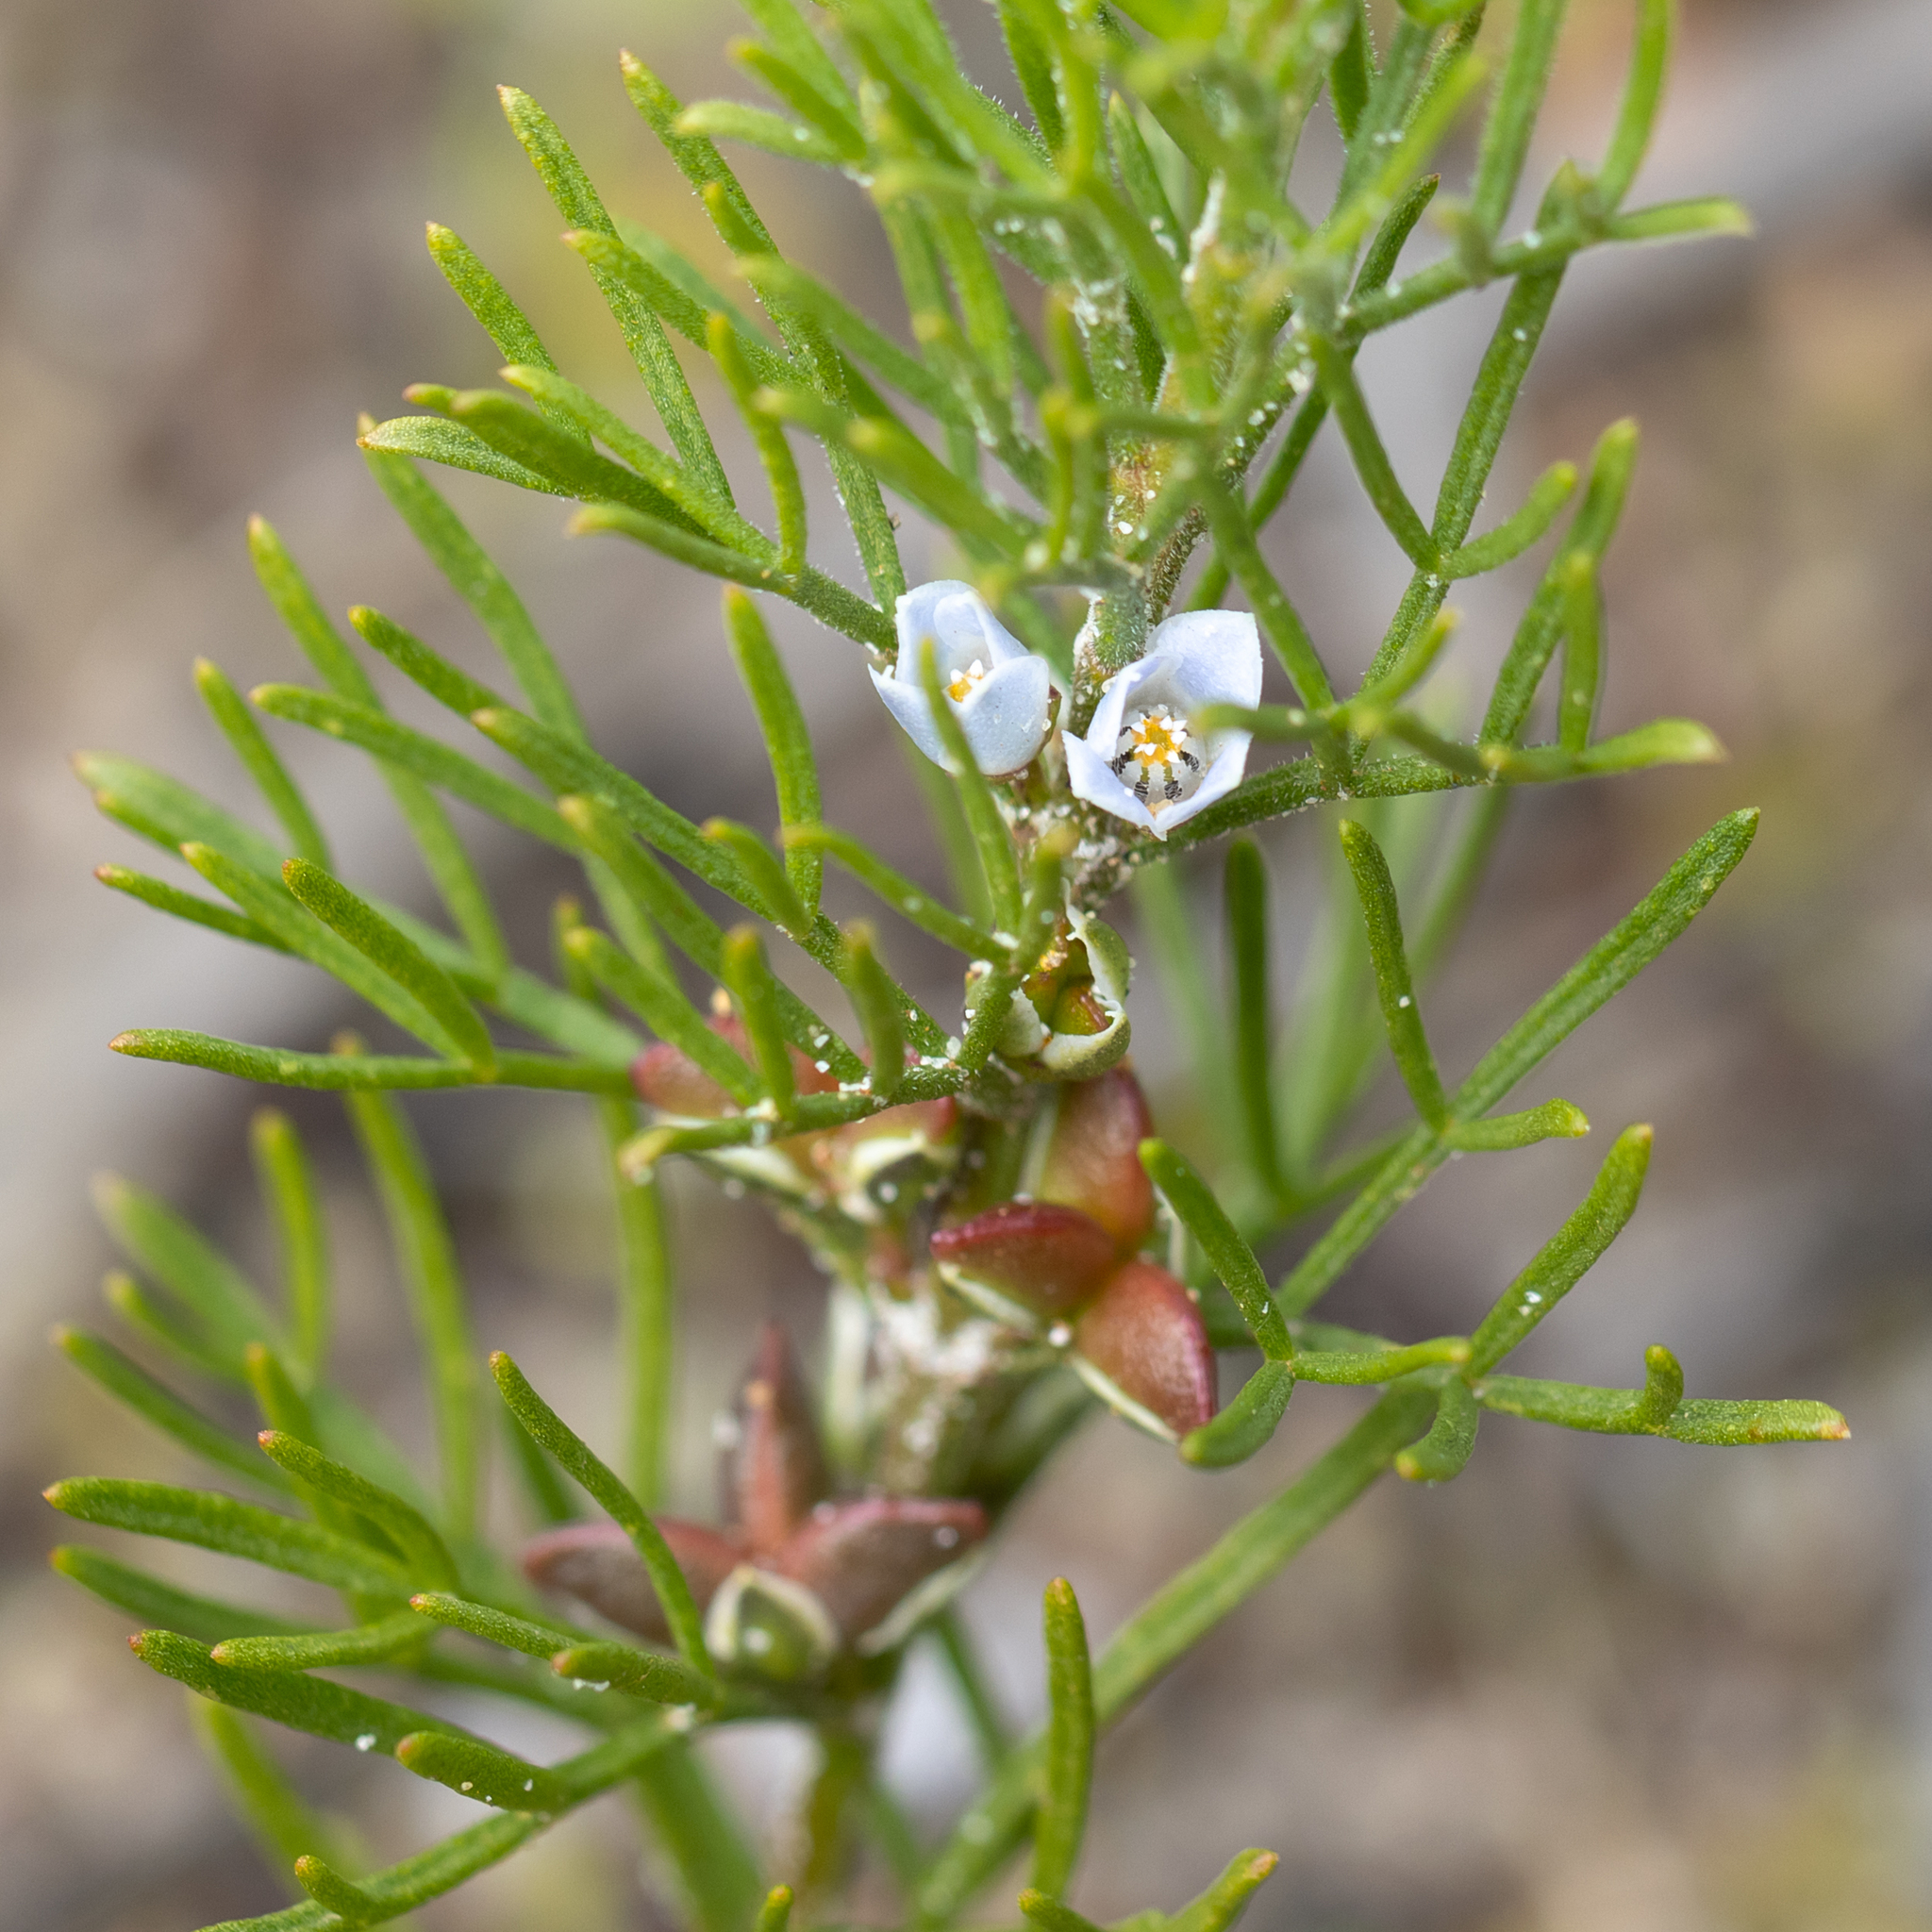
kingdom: Plantae
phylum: Tracheophyta
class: Magnoliopsida
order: Sapindales
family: Rutaceae
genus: Cyanothamnus
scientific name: Cyanothamnus ramosus
